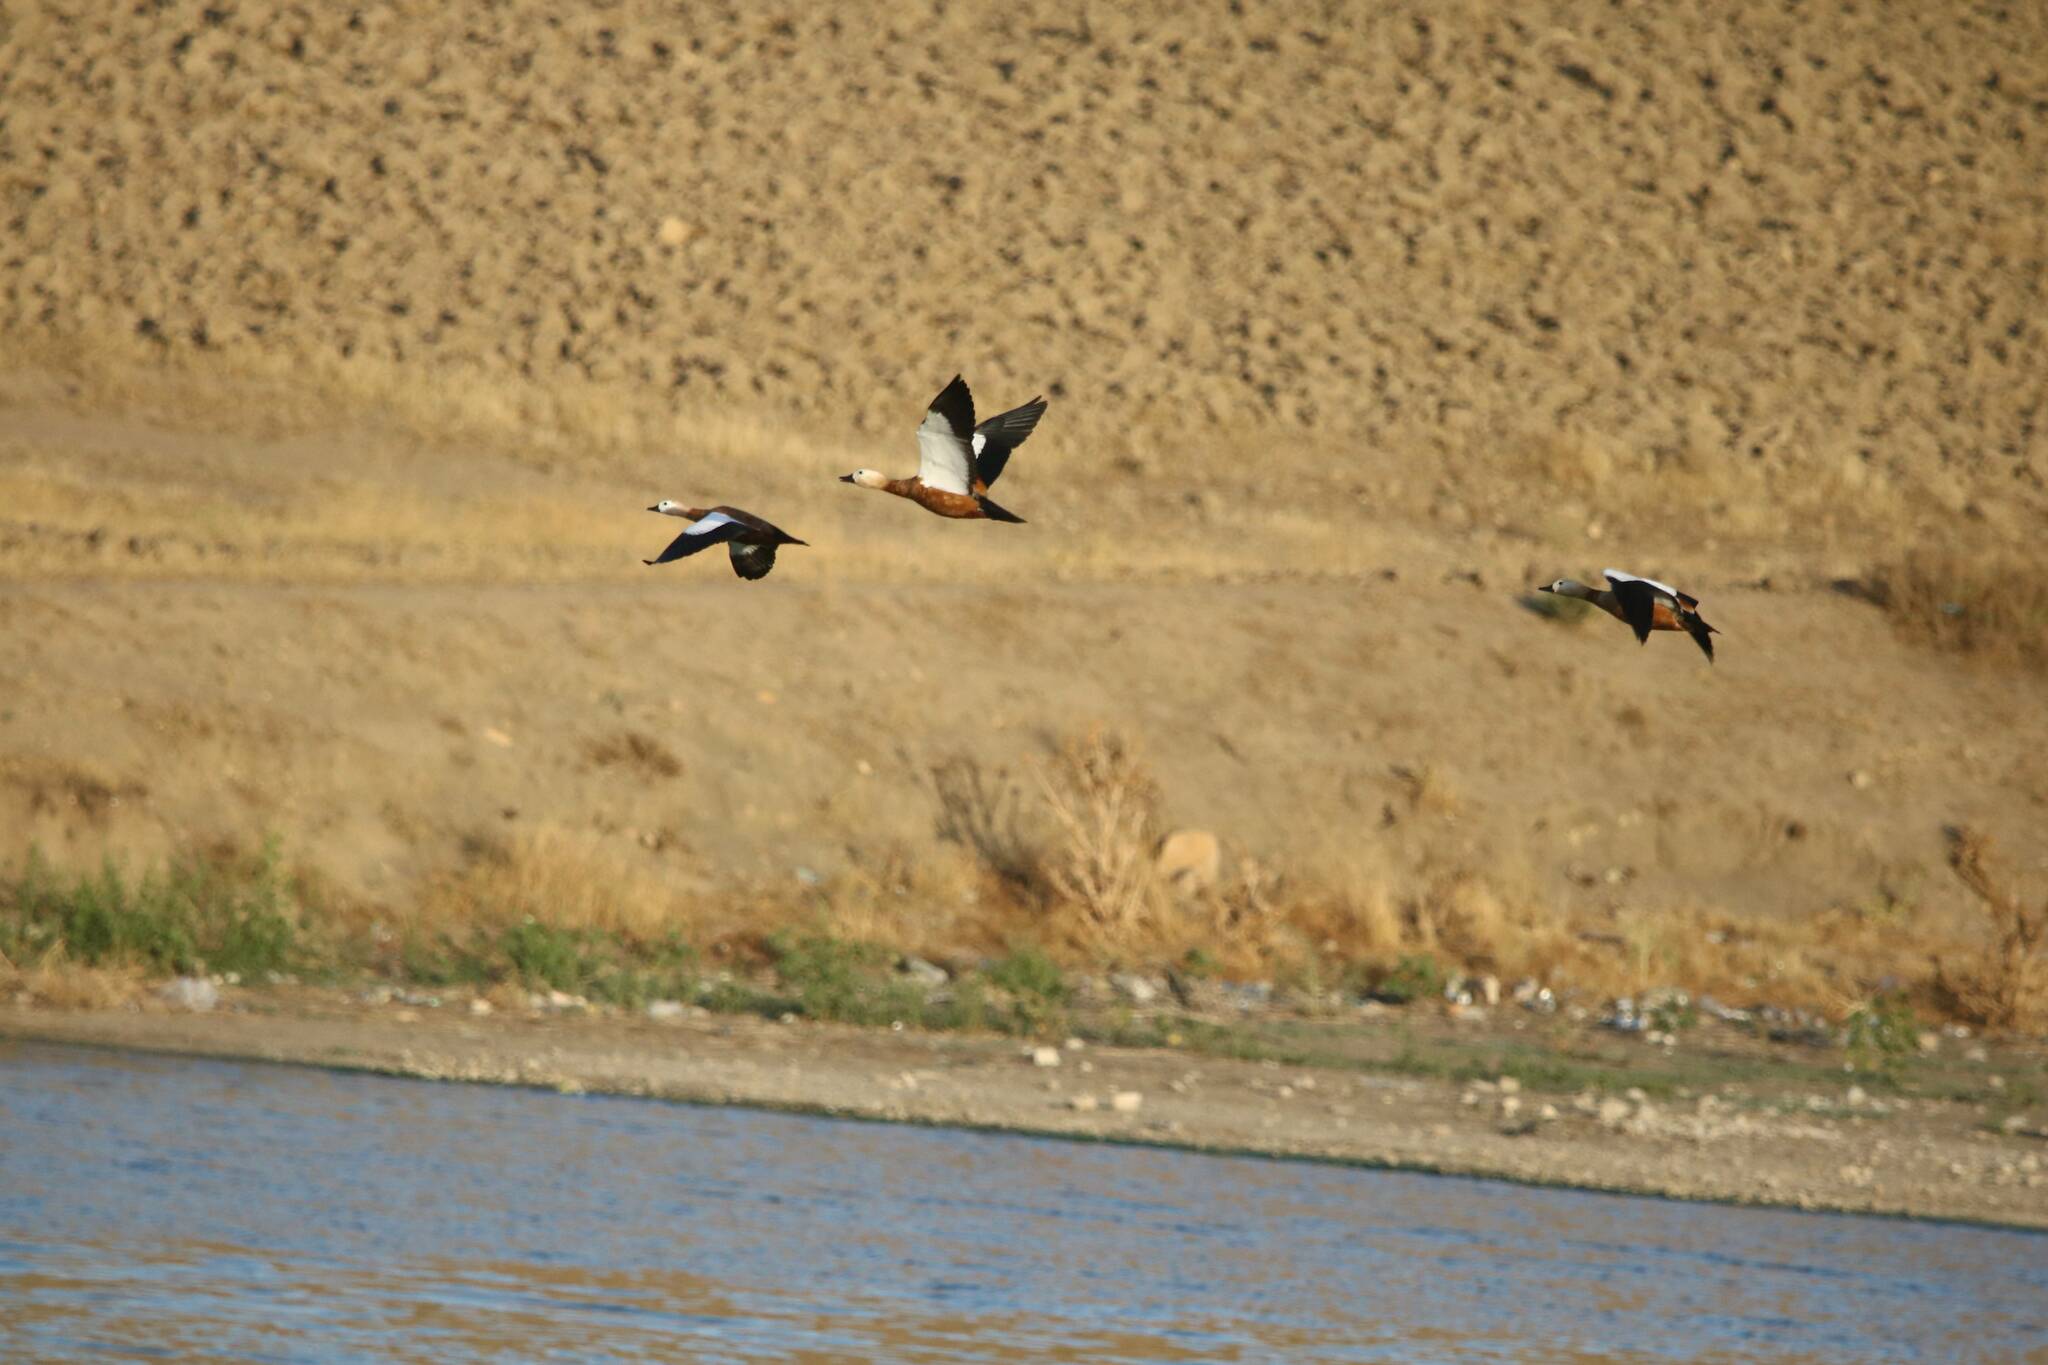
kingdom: Animalia
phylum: Chordata
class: Aves
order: Anseriformes
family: Anatidae
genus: Tadorna
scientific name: Tadorna ferruginea
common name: Ruddy shelduck
